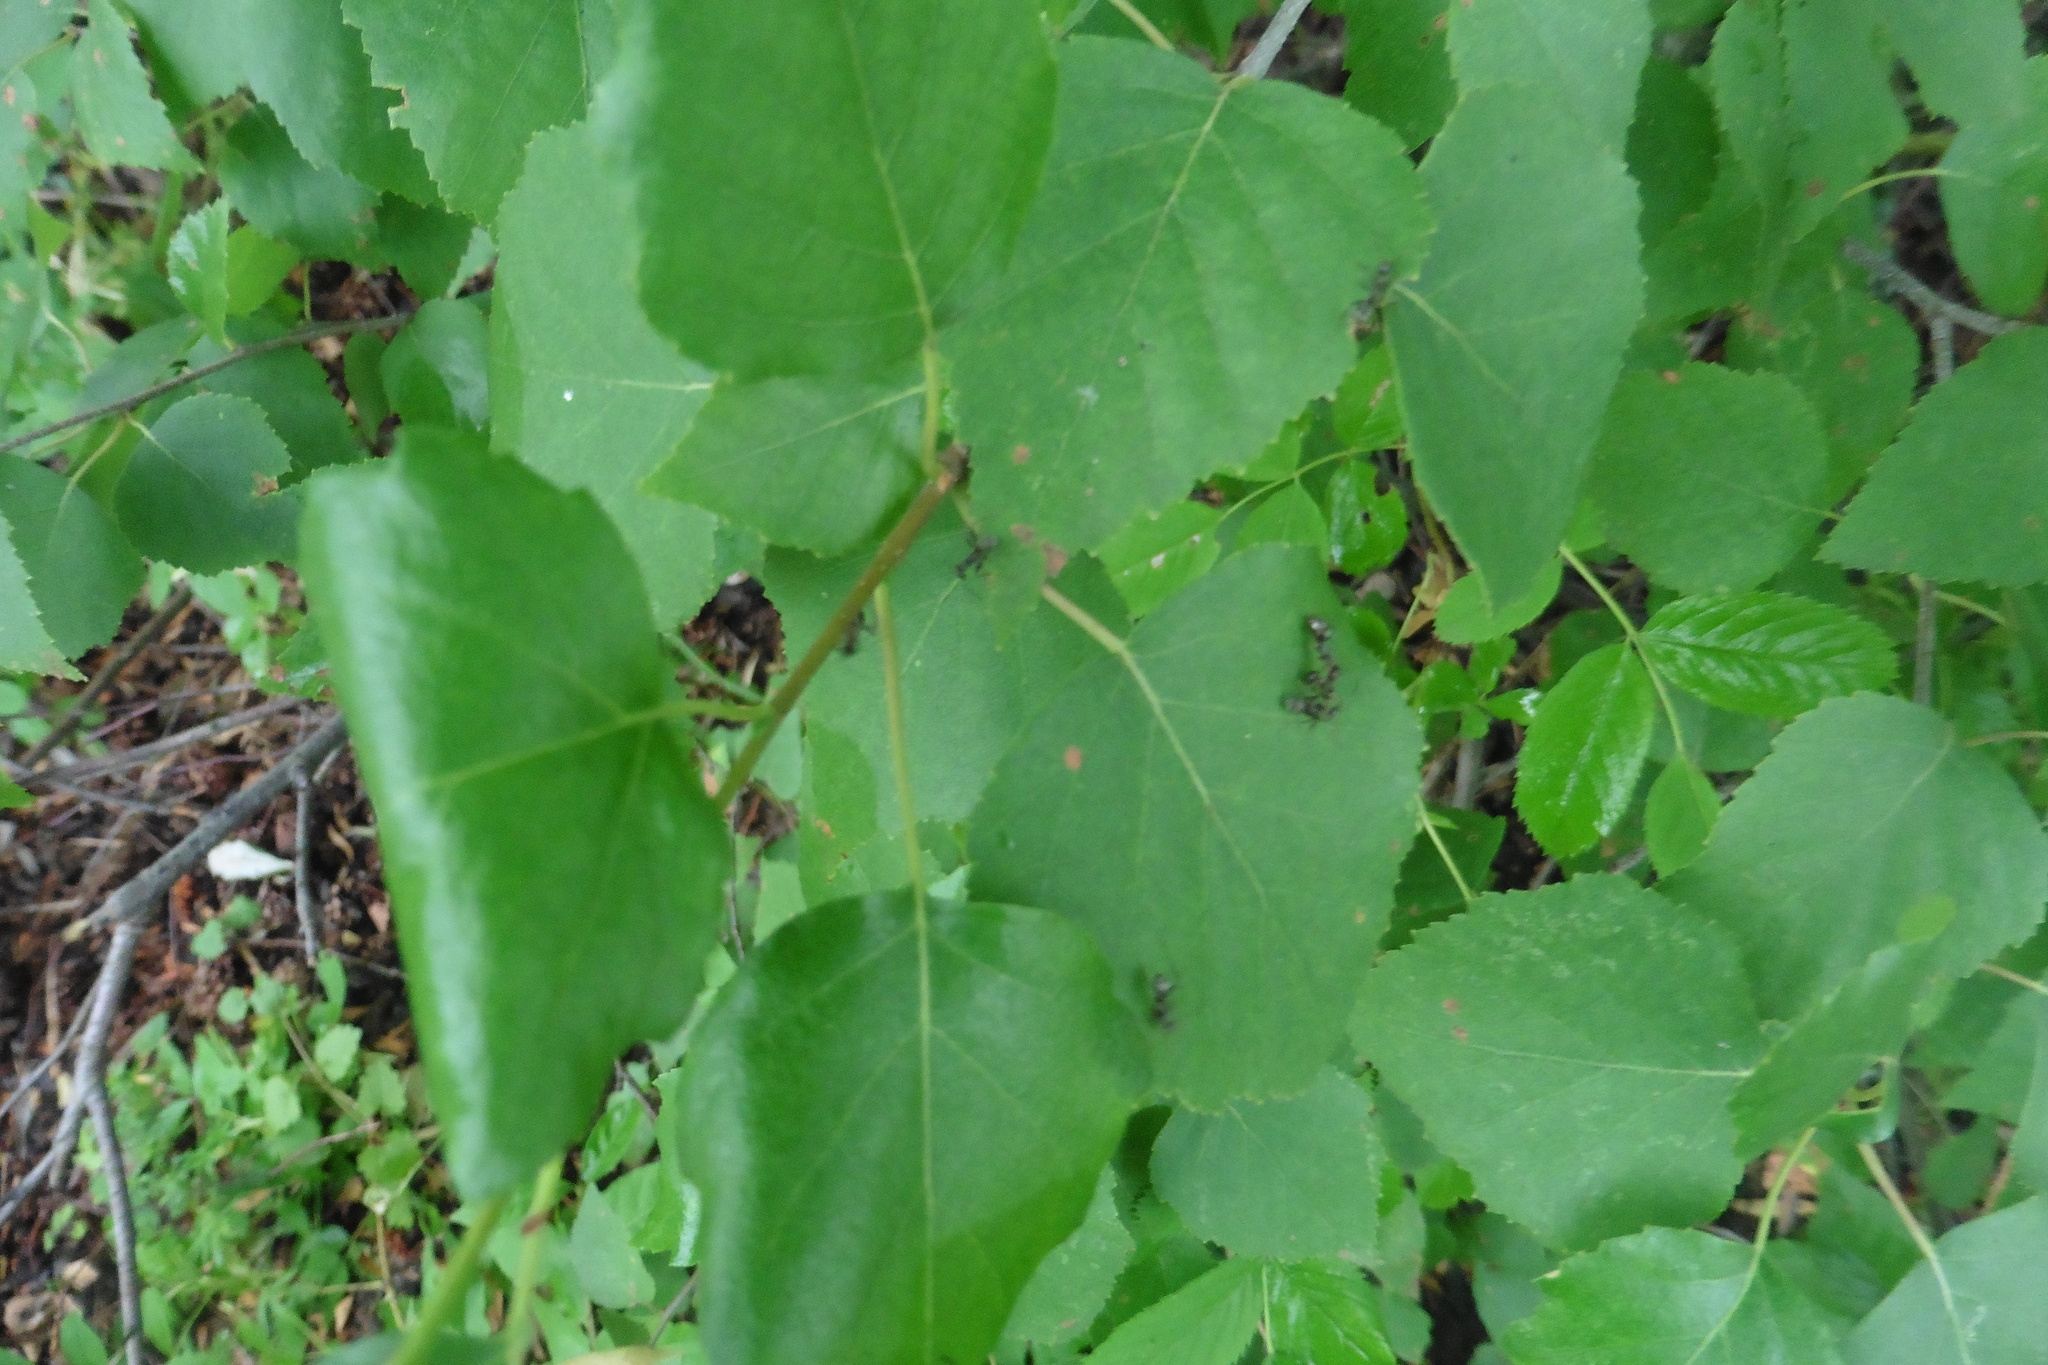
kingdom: Plantae
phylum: Tracheophyta
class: Magnoliopsida
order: Fagales
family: Betulaceae
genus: Betula
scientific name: Betula pendula
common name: Silver birch
